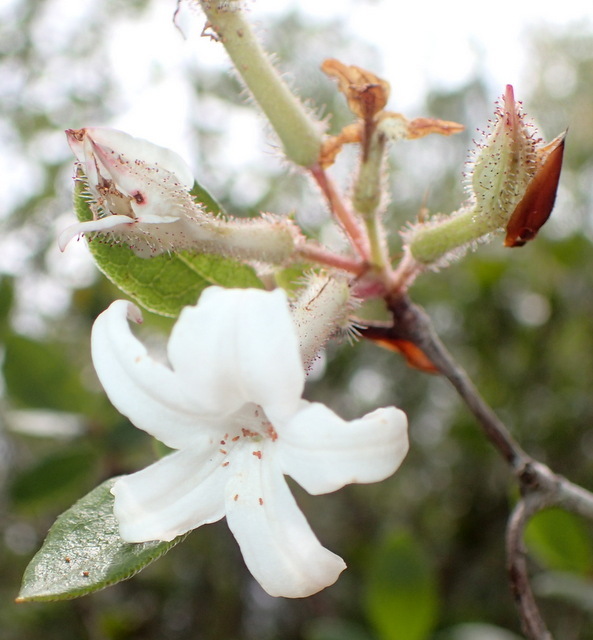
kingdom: Plantae
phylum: Tracheophyta
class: Magnoliopsida
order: Ericales
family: Ericaceae
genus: Rhododendron
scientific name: Rhododendron serrulatum
